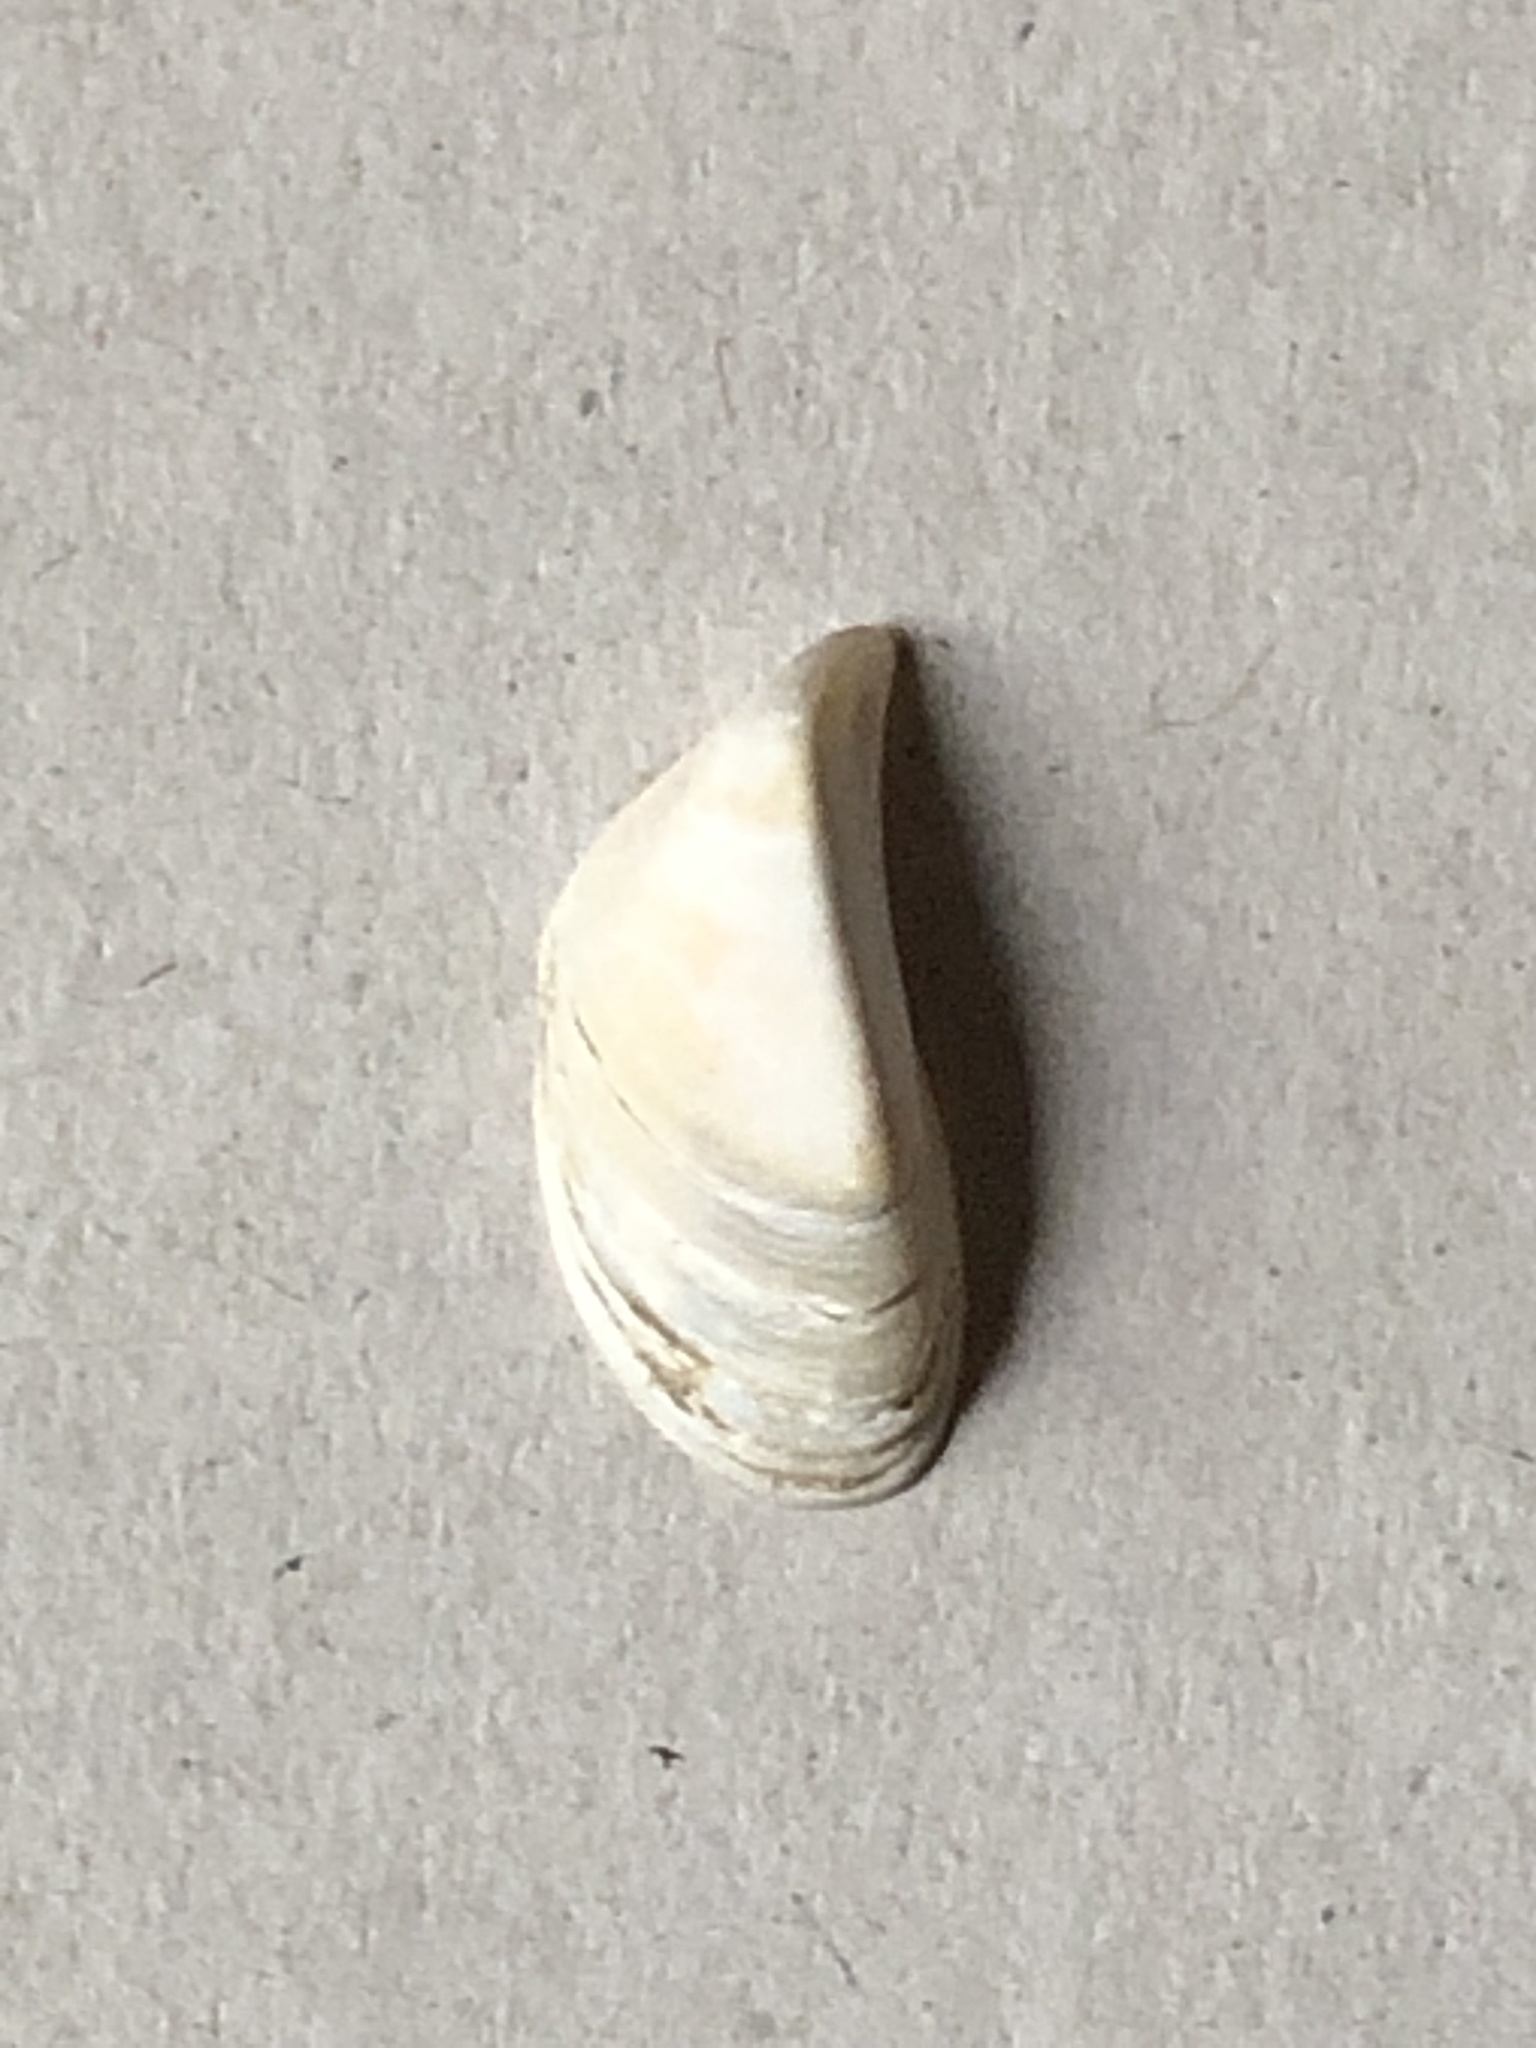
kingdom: Animalia
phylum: Mollusca
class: Bivalvia
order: Myida
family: Dreissenidae
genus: Dreissena
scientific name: Dreissena polymorpha
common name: Zebra mussel
